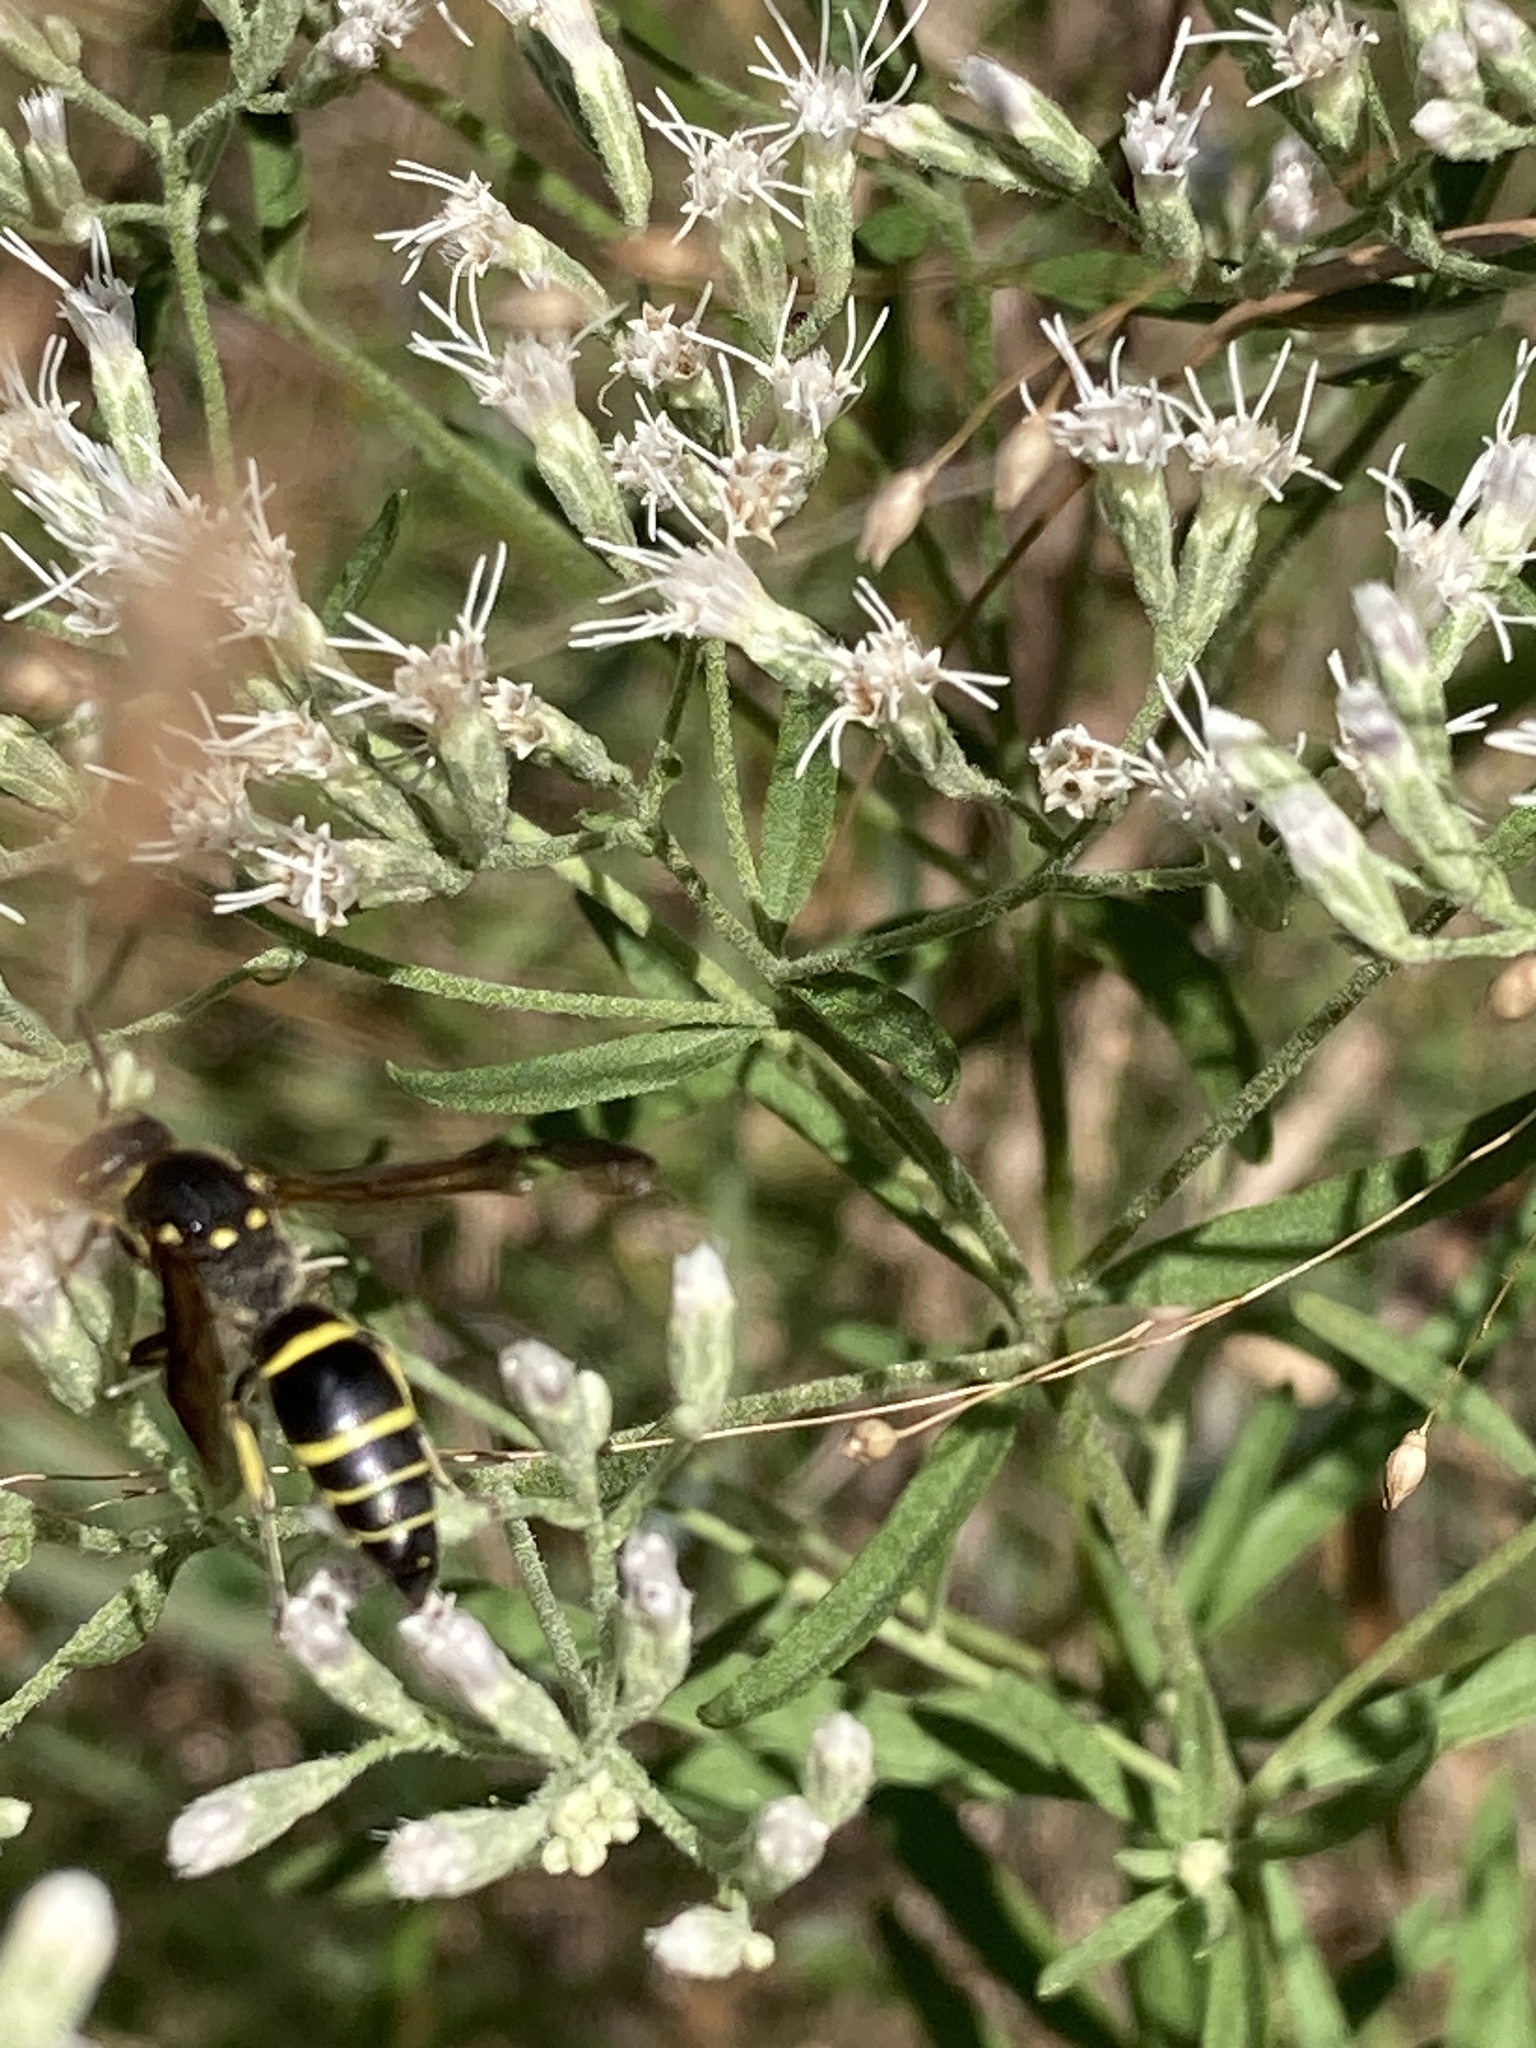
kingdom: Animalia
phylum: Arthropoda
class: Insecta
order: Hymenoptera
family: Vespidae
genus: Ancistrocerus
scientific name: Ancistrocerus
